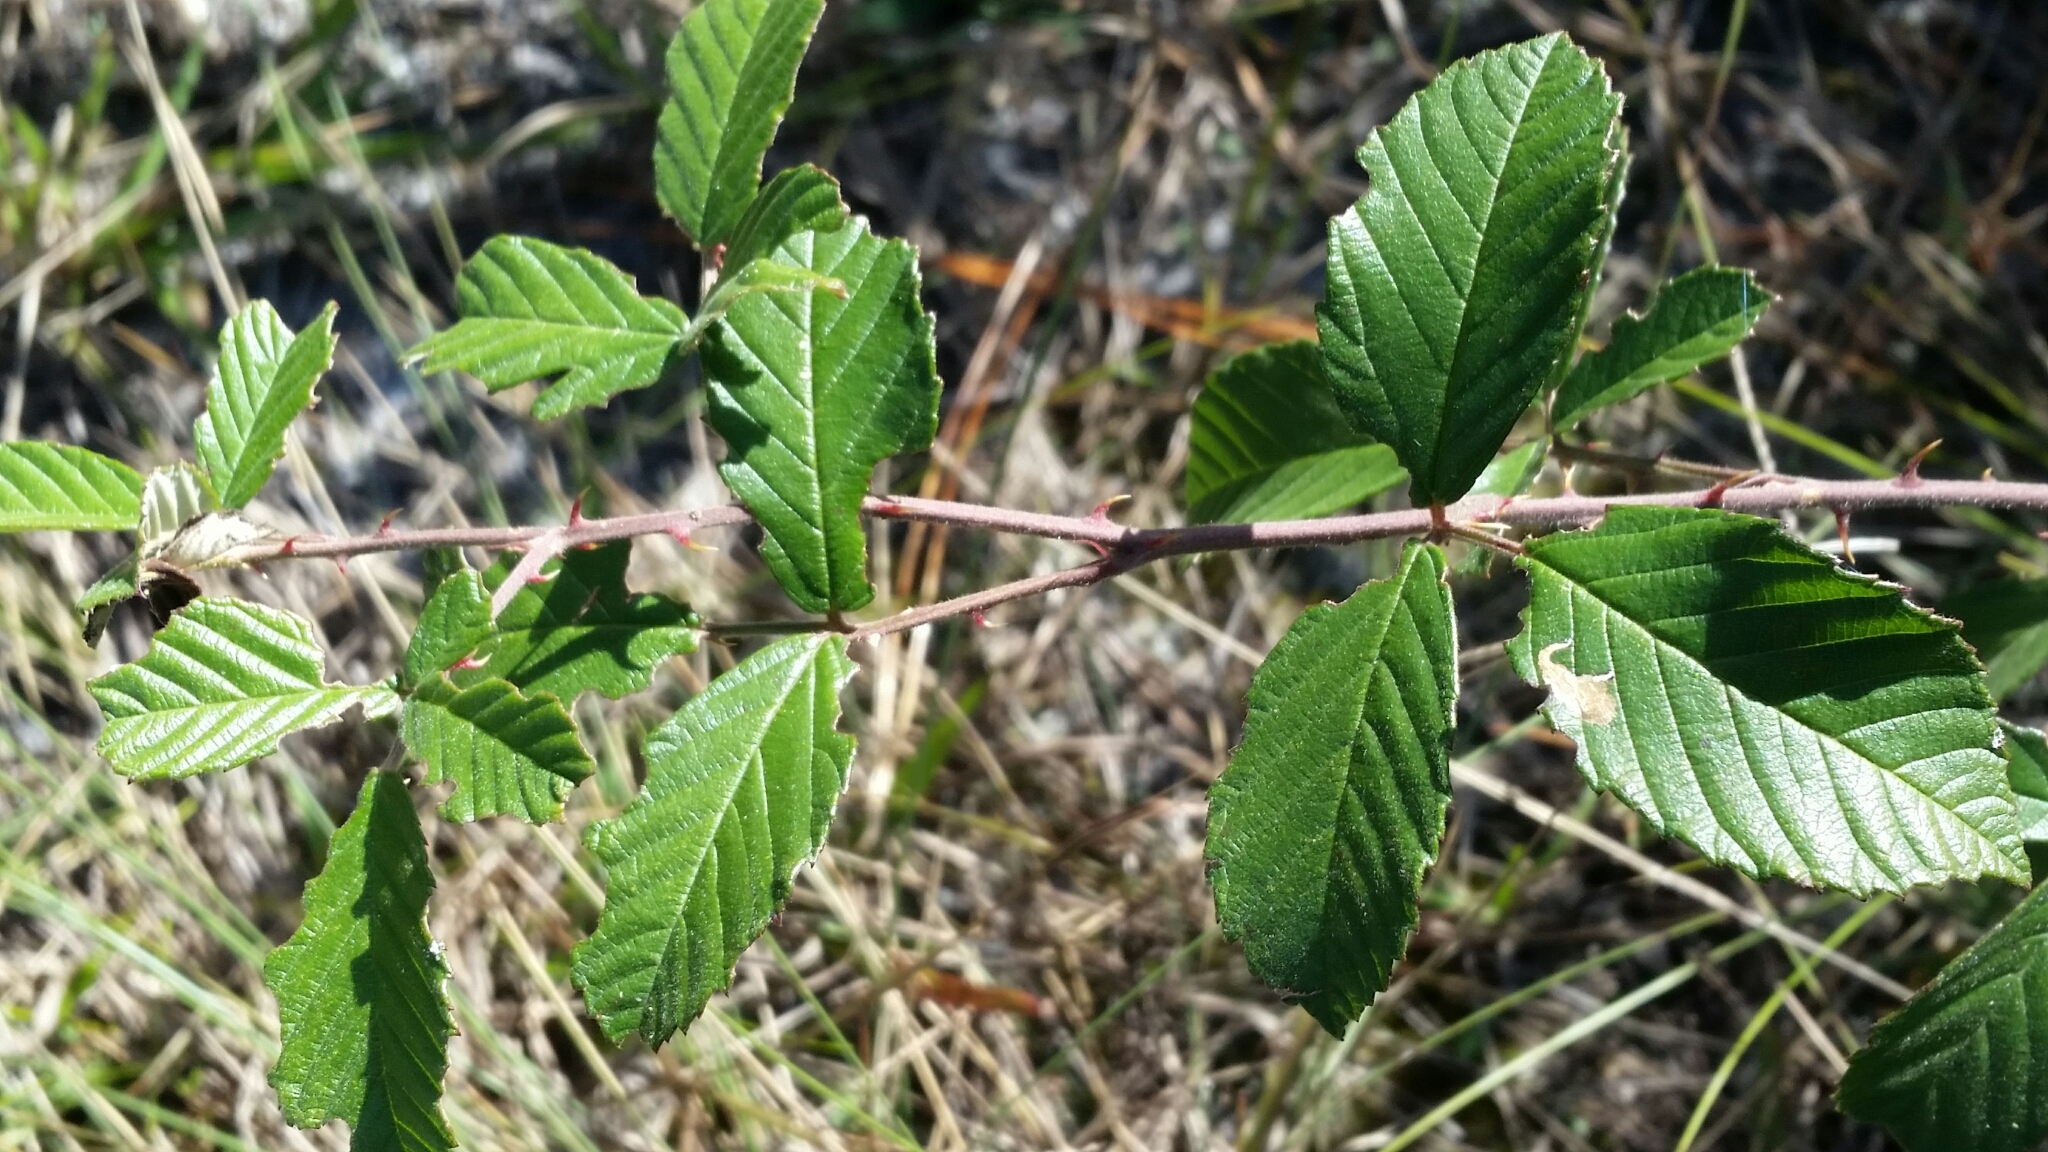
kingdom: Plantae
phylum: Tracheophyta
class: Magnoliopsida
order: Rosales
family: Rosaceae
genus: Rubus
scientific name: Rubus cuneifolius
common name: American bramble
